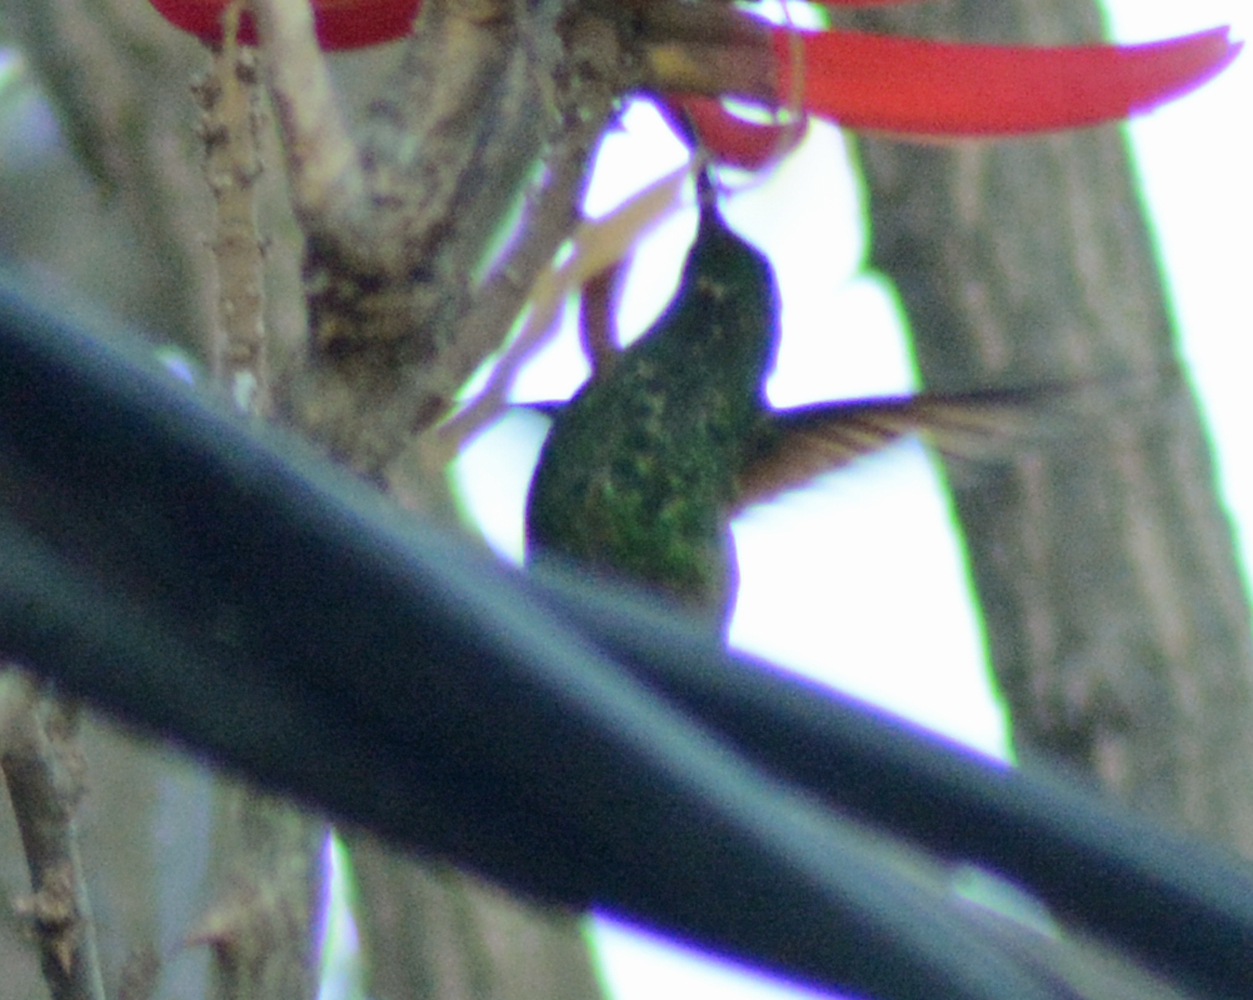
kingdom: Animalia
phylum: Chordata
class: Aves
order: Apodiformes
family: Trochilidae
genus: Saucerottia
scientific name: Saucerottia beryllina
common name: Berylline hummingbird
